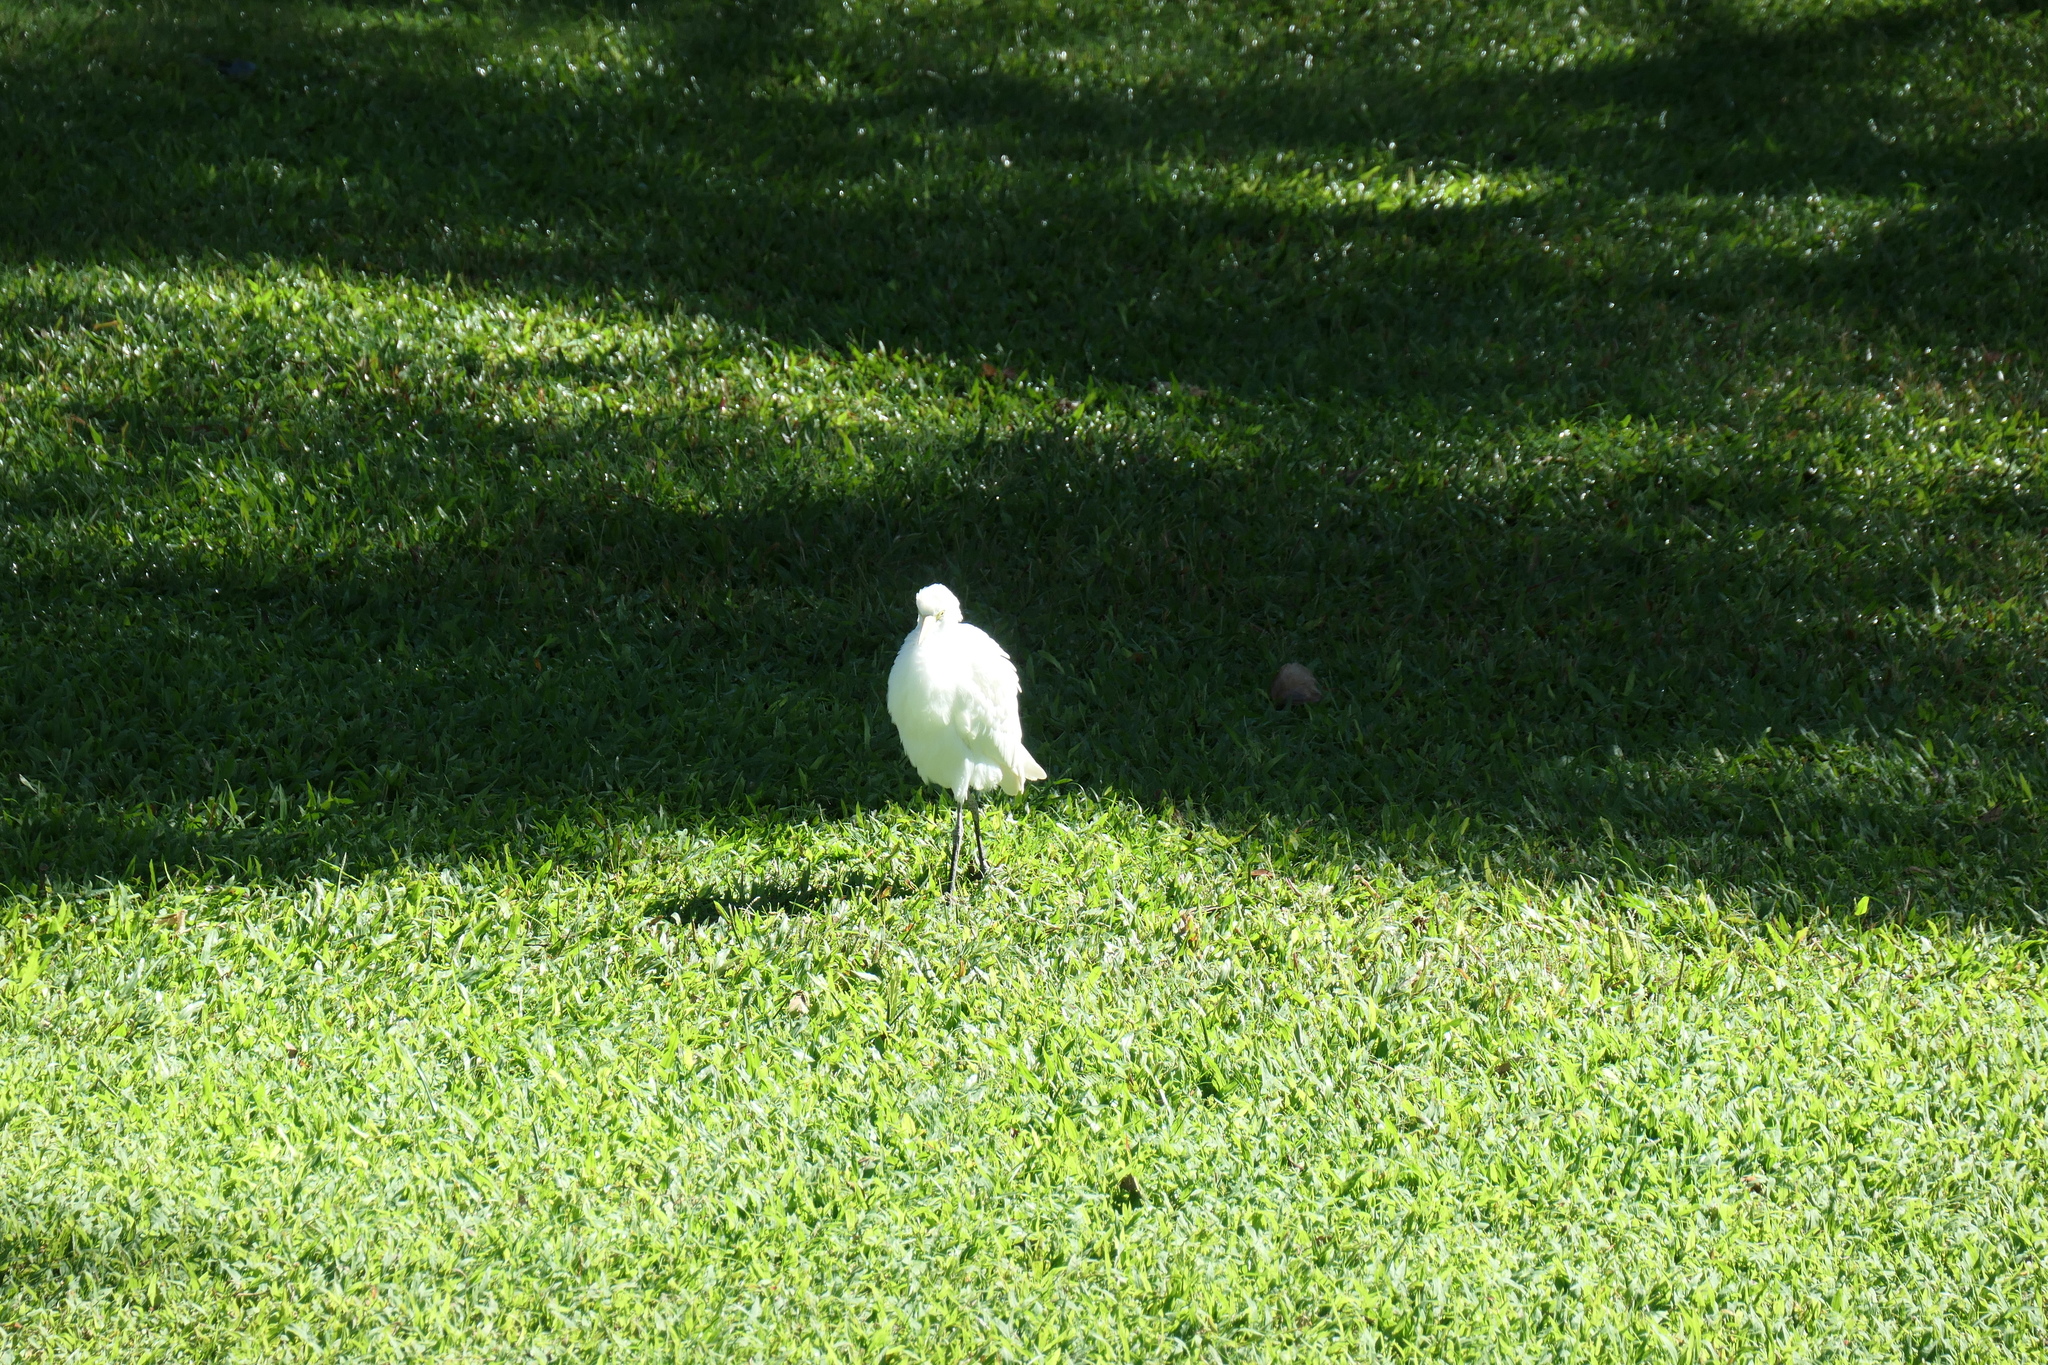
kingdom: Animalia
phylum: Chordata
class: Aves
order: Pelecaniformes
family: Ardeidae
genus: Bubulcus
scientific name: Bubulcus ibis
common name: Cattle egret
